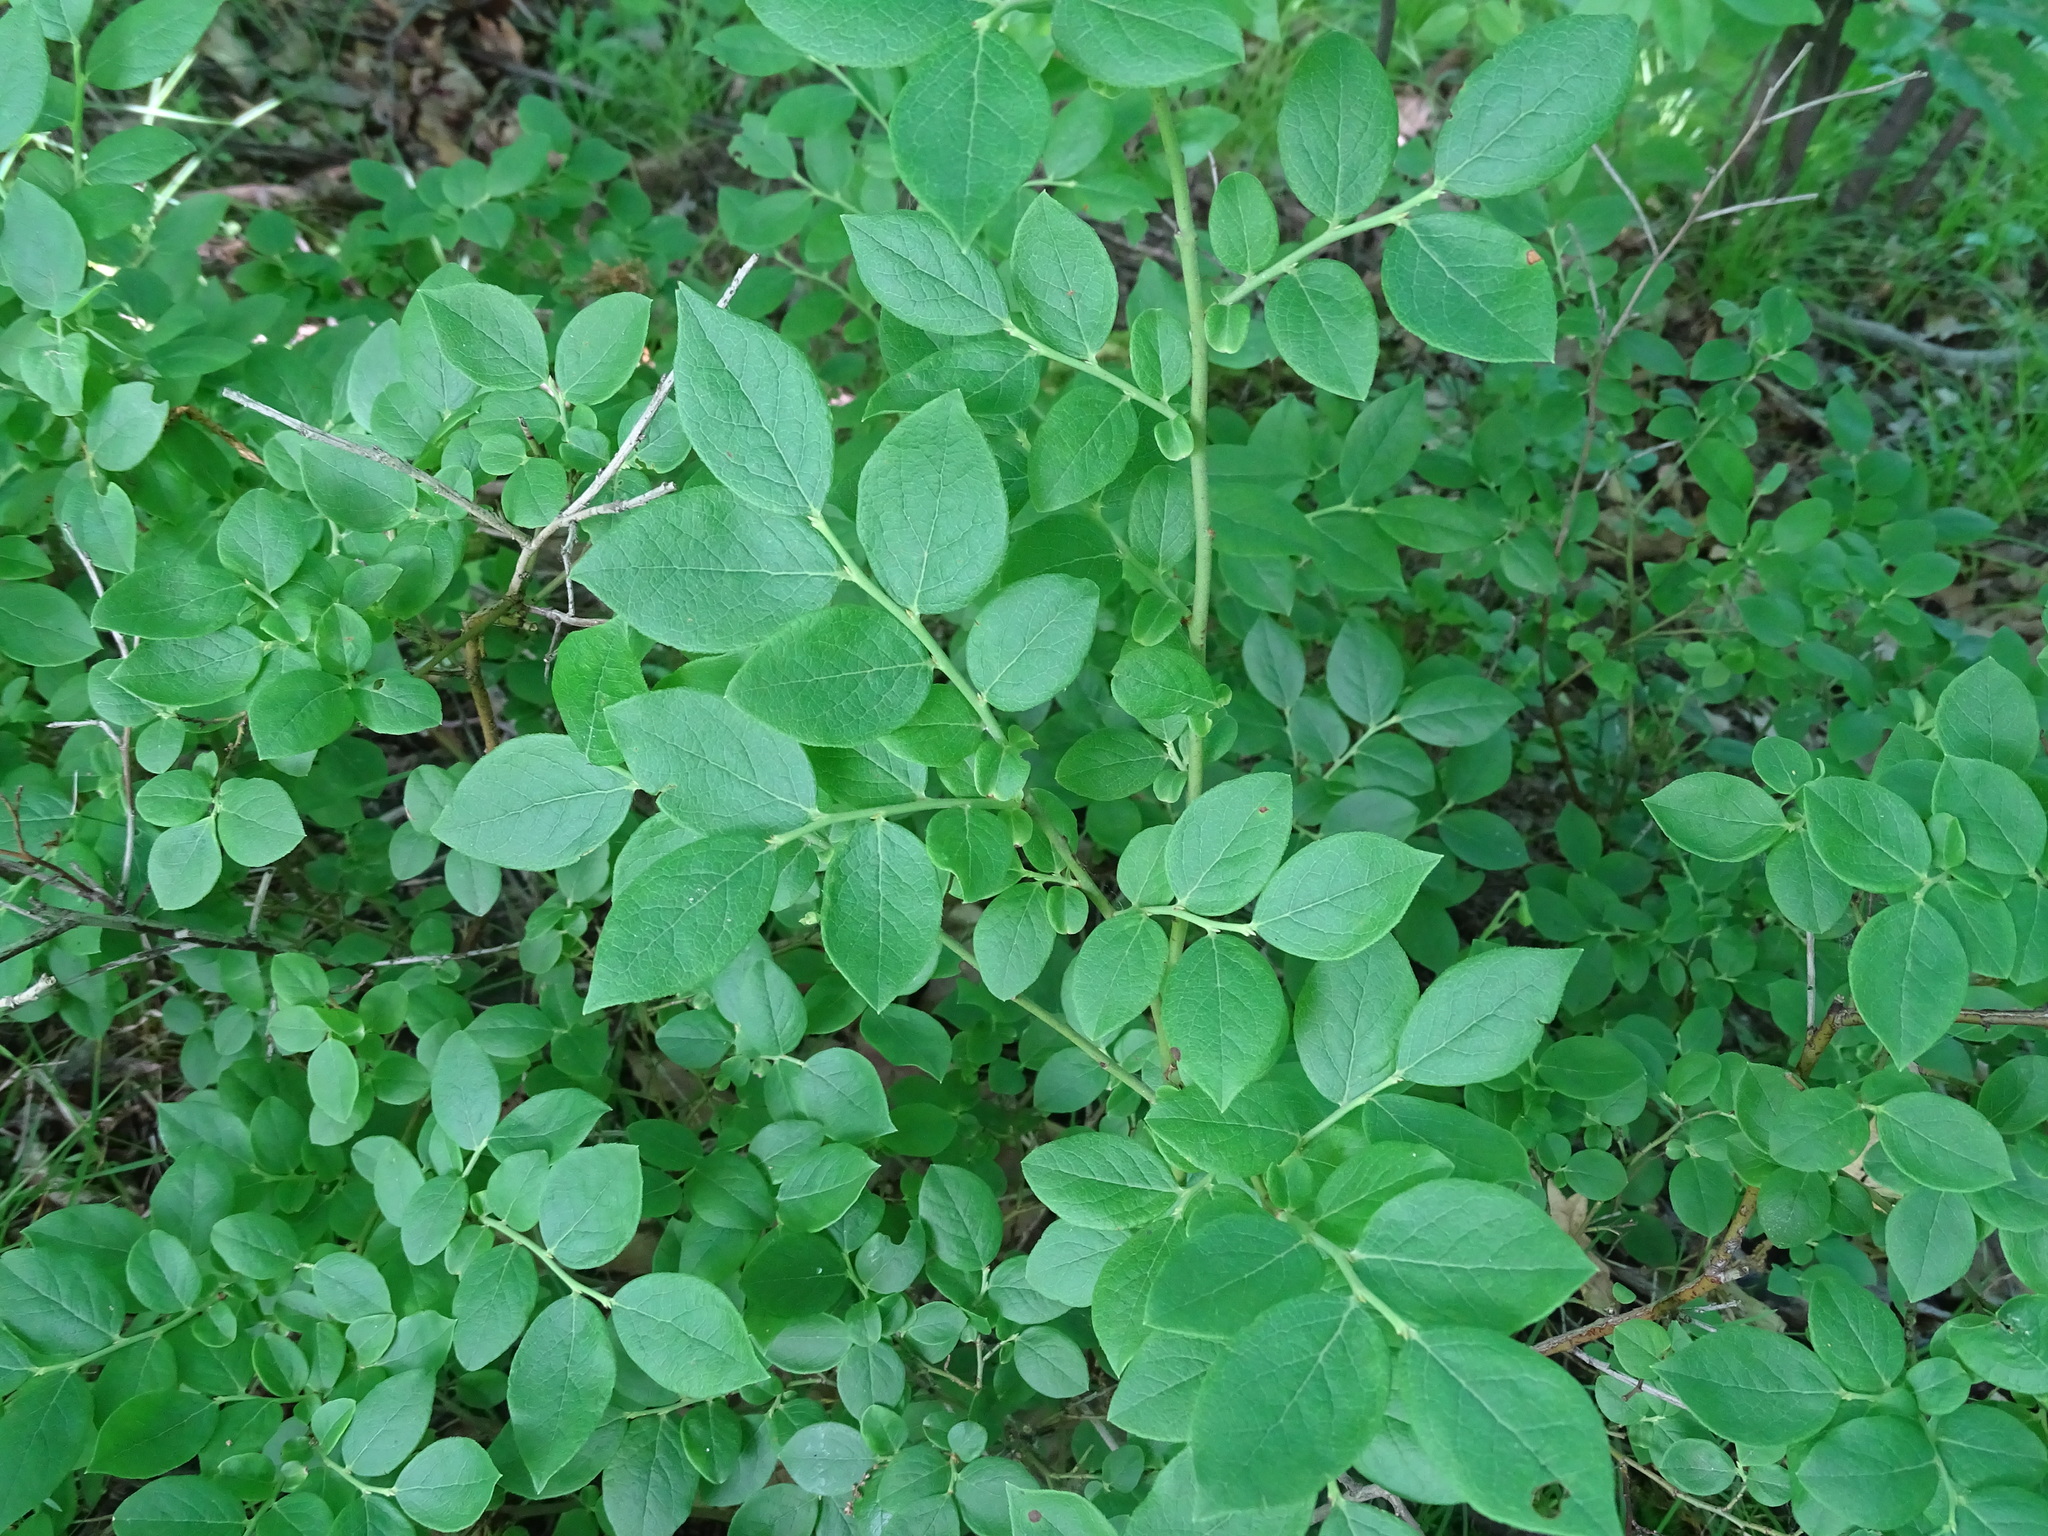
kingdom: Plantae
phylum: Tracheophyta
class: Magnoliopsida
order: Ericales
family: Ericaceae
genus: Vaccinium
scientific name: Vaccinium pallidum
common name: Blue ridge blueberry
